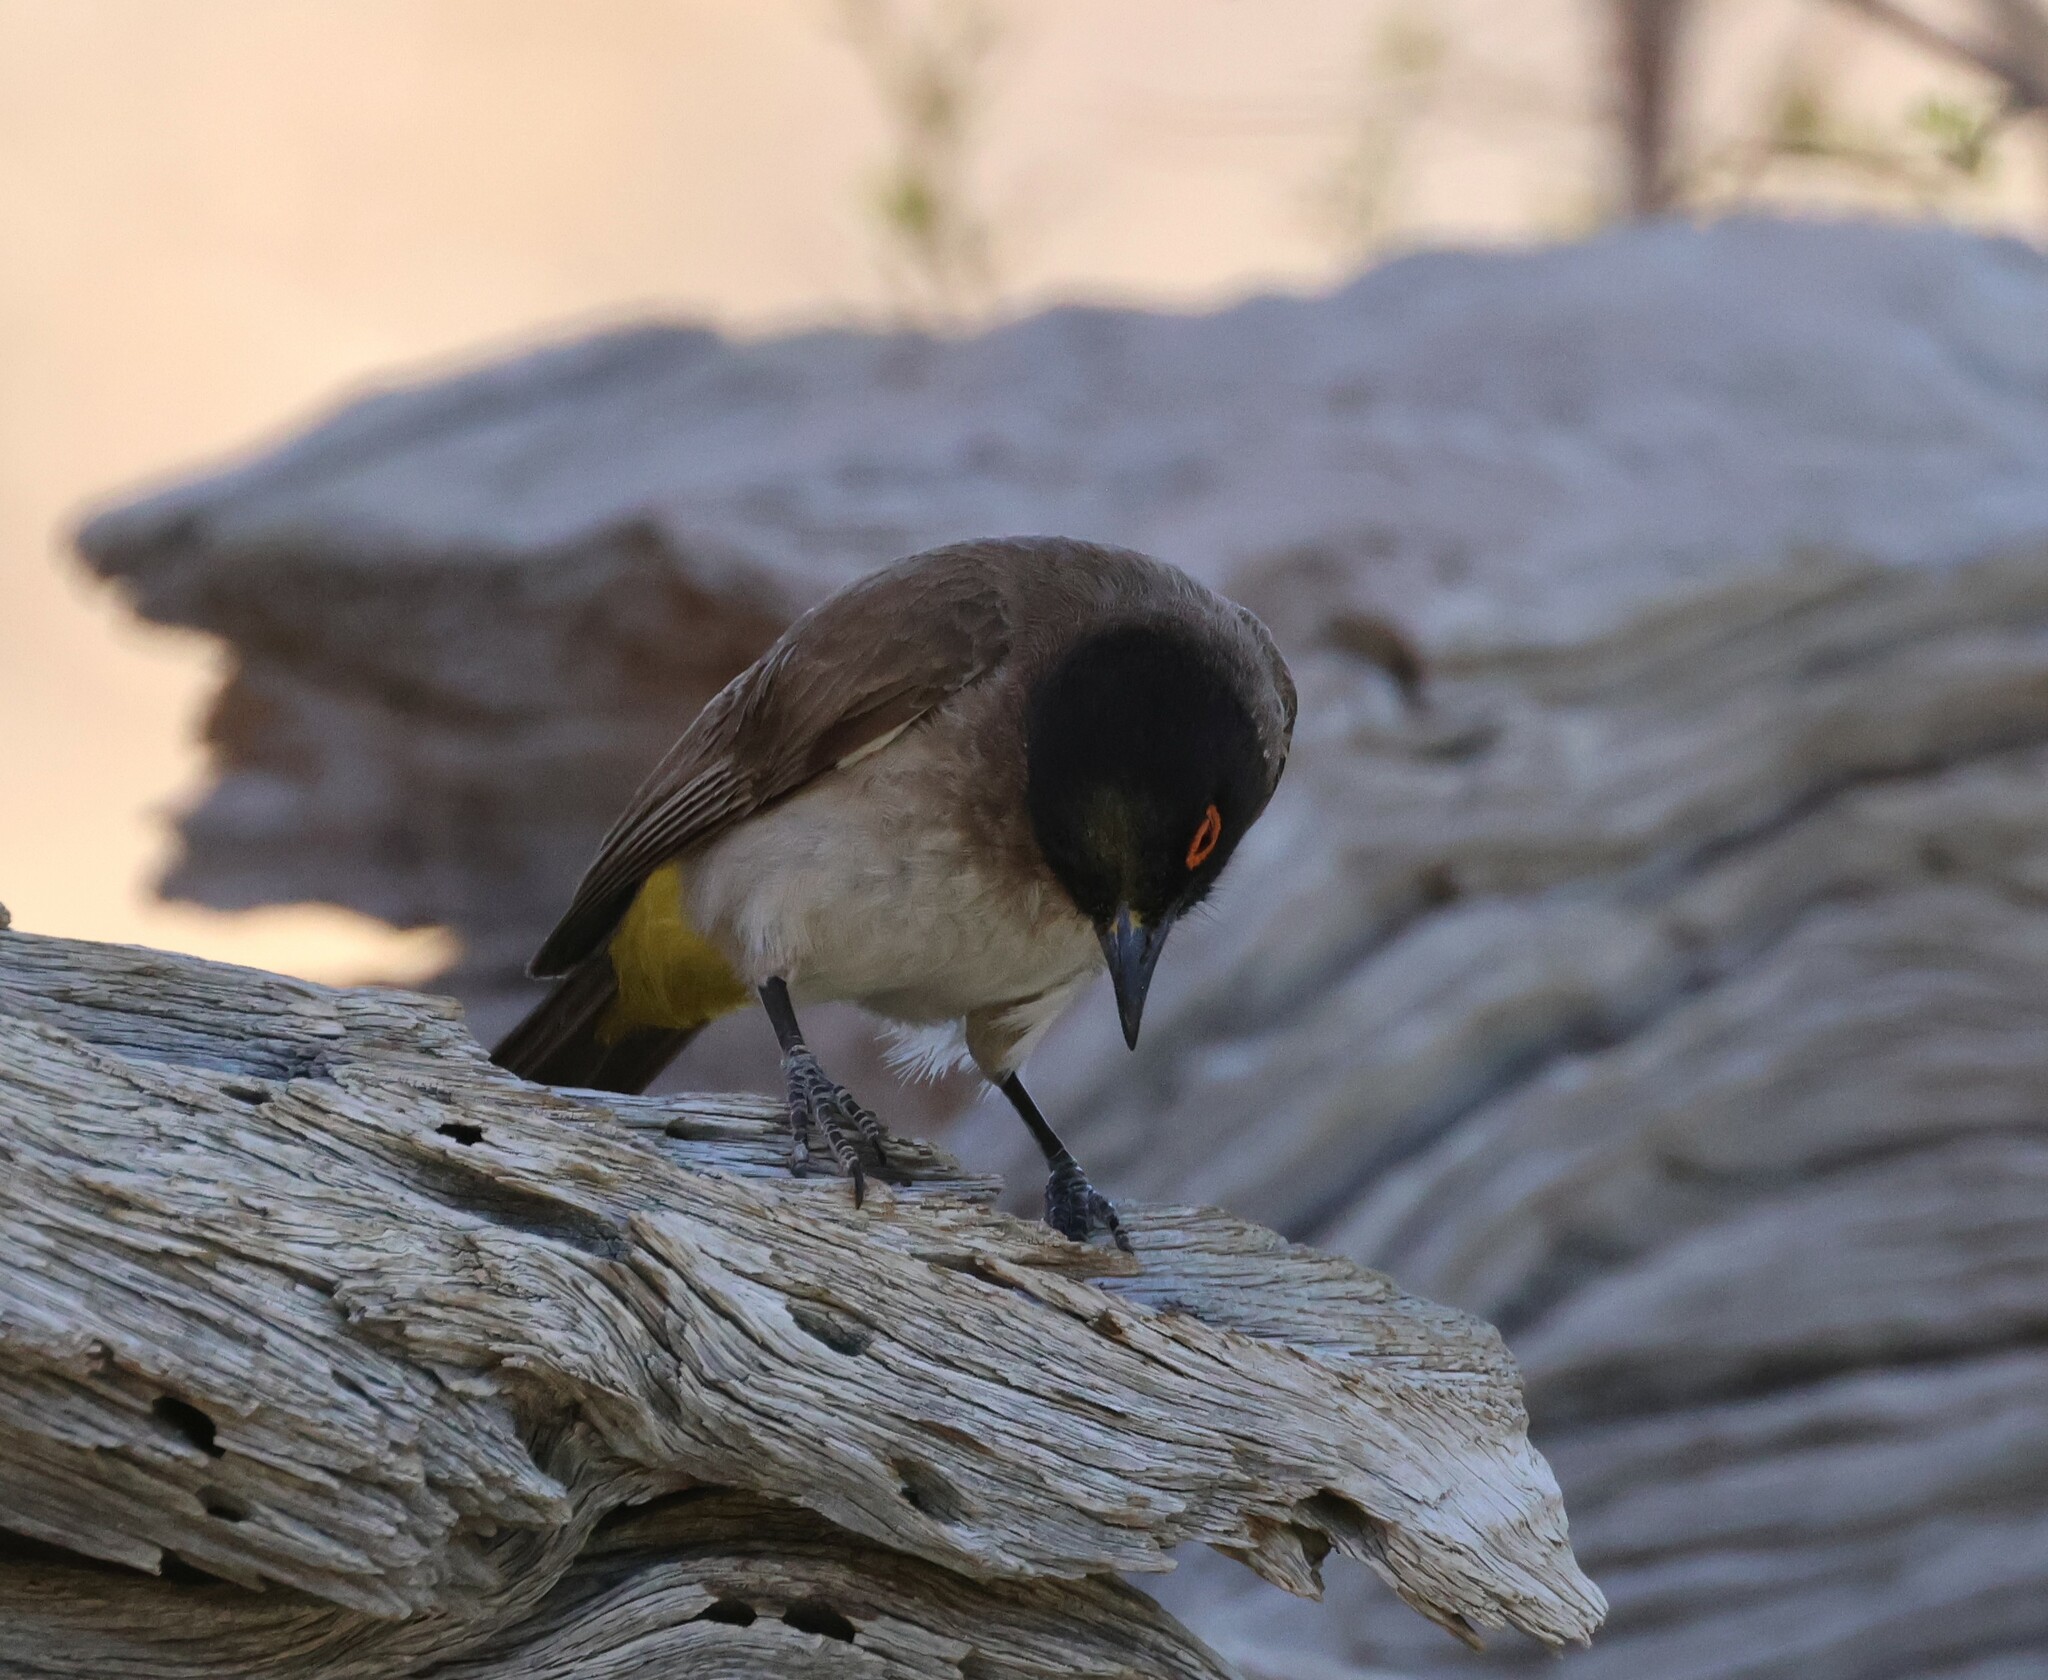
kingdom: Animalia
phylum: Chordata
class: Aves
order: Passeriformes
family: Pycnonotidae
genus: Pycnonotus
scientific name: Pycnonotus nigricans
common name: African red-eyed bulbul
